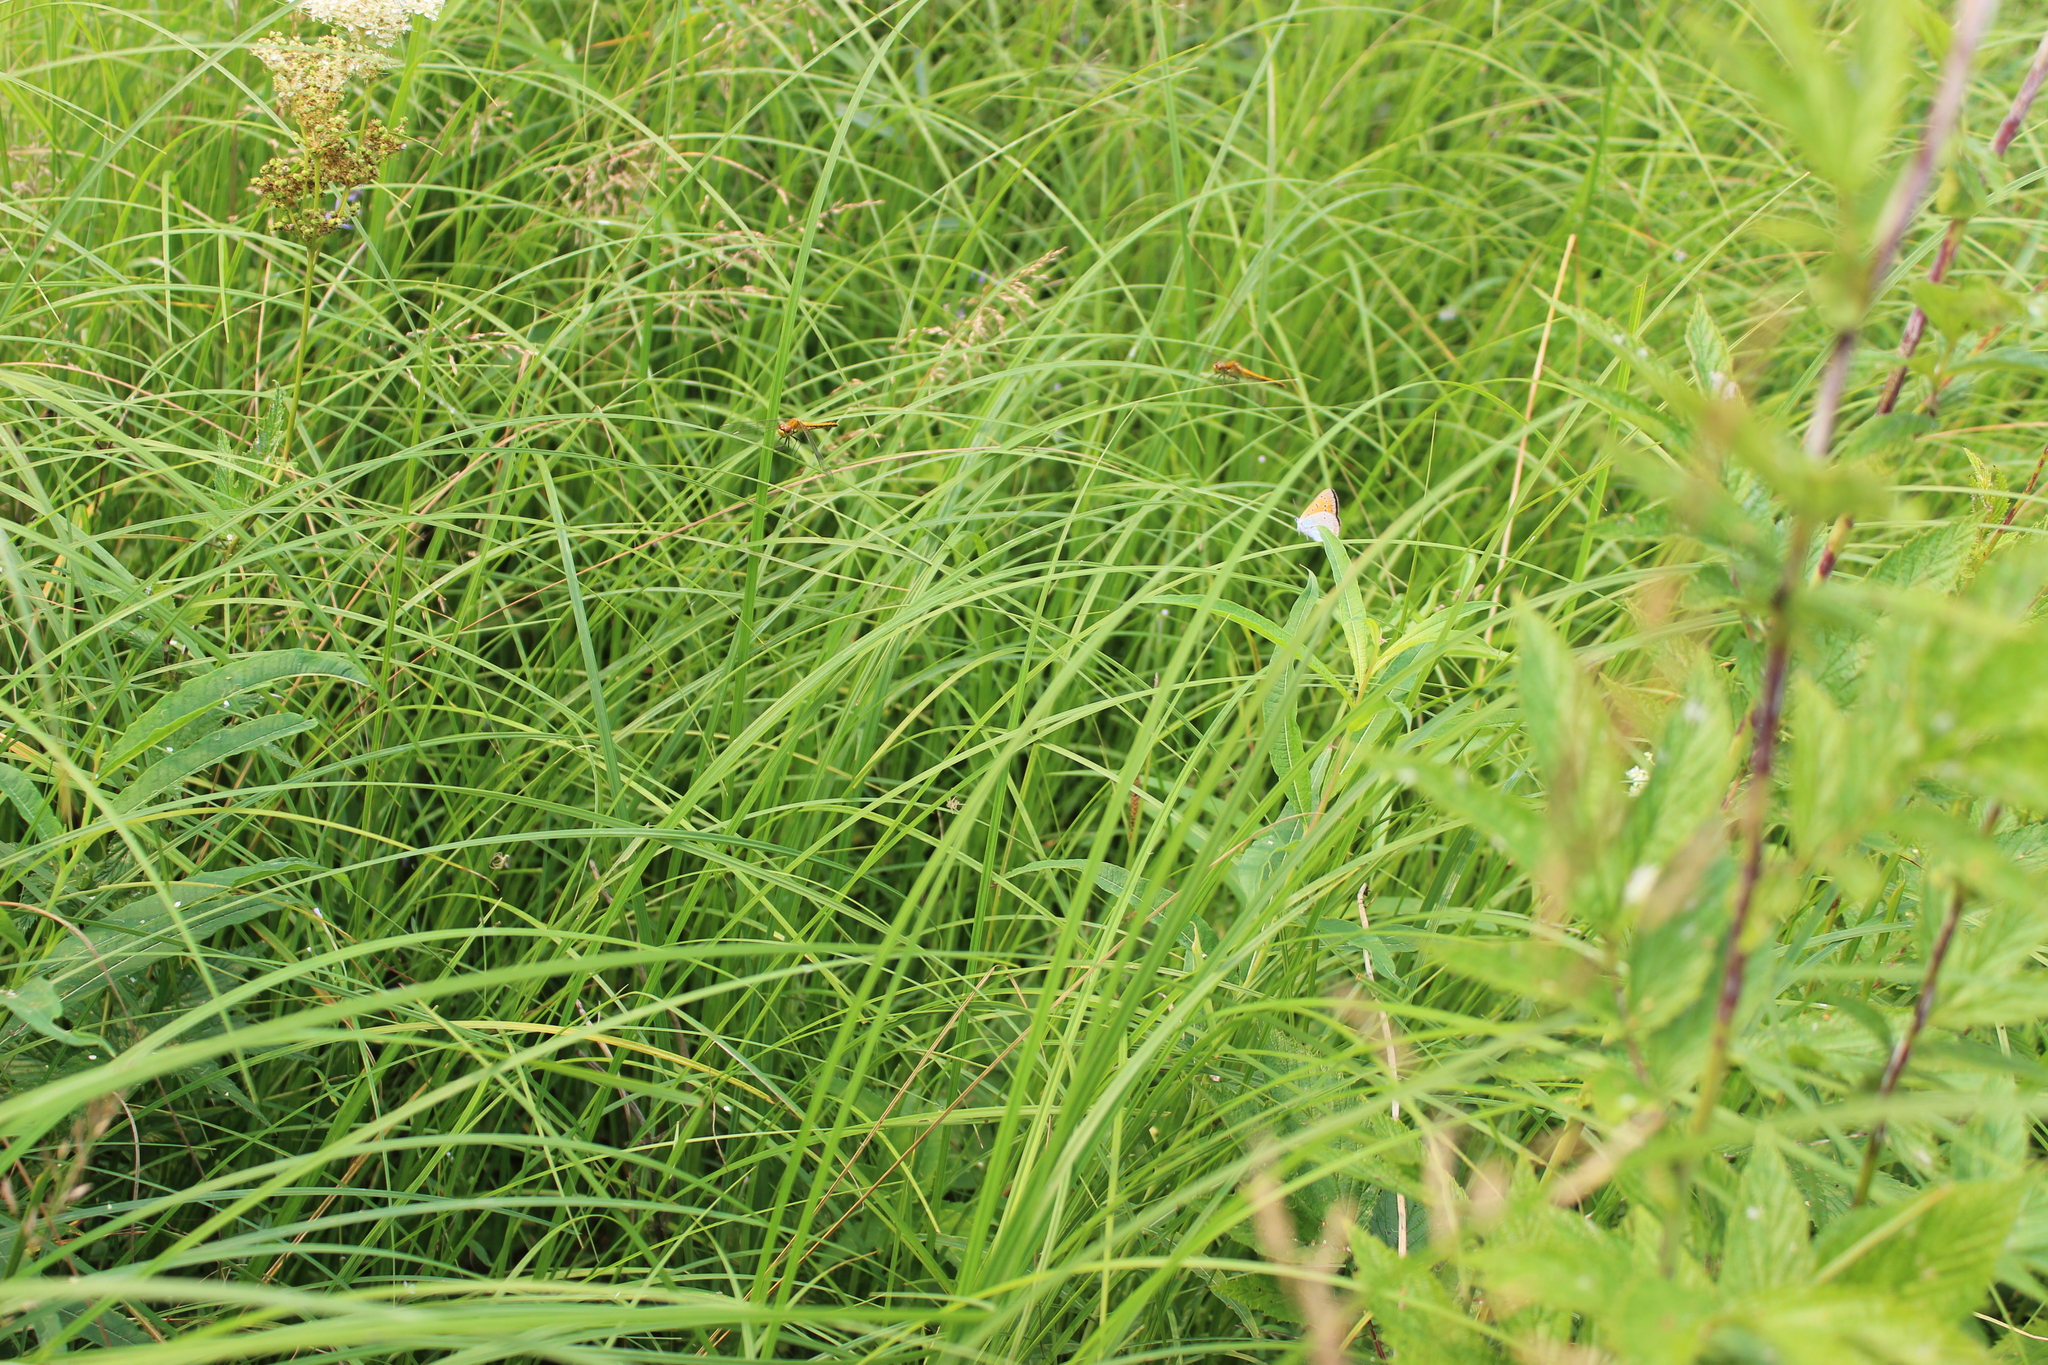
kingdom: Animalia
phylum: Arthropoda
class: Insecta
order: Odonata
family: Libellulidae
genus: Sympetrum
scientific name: Sympetrum flaveolum
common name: Yellow-winged darter
